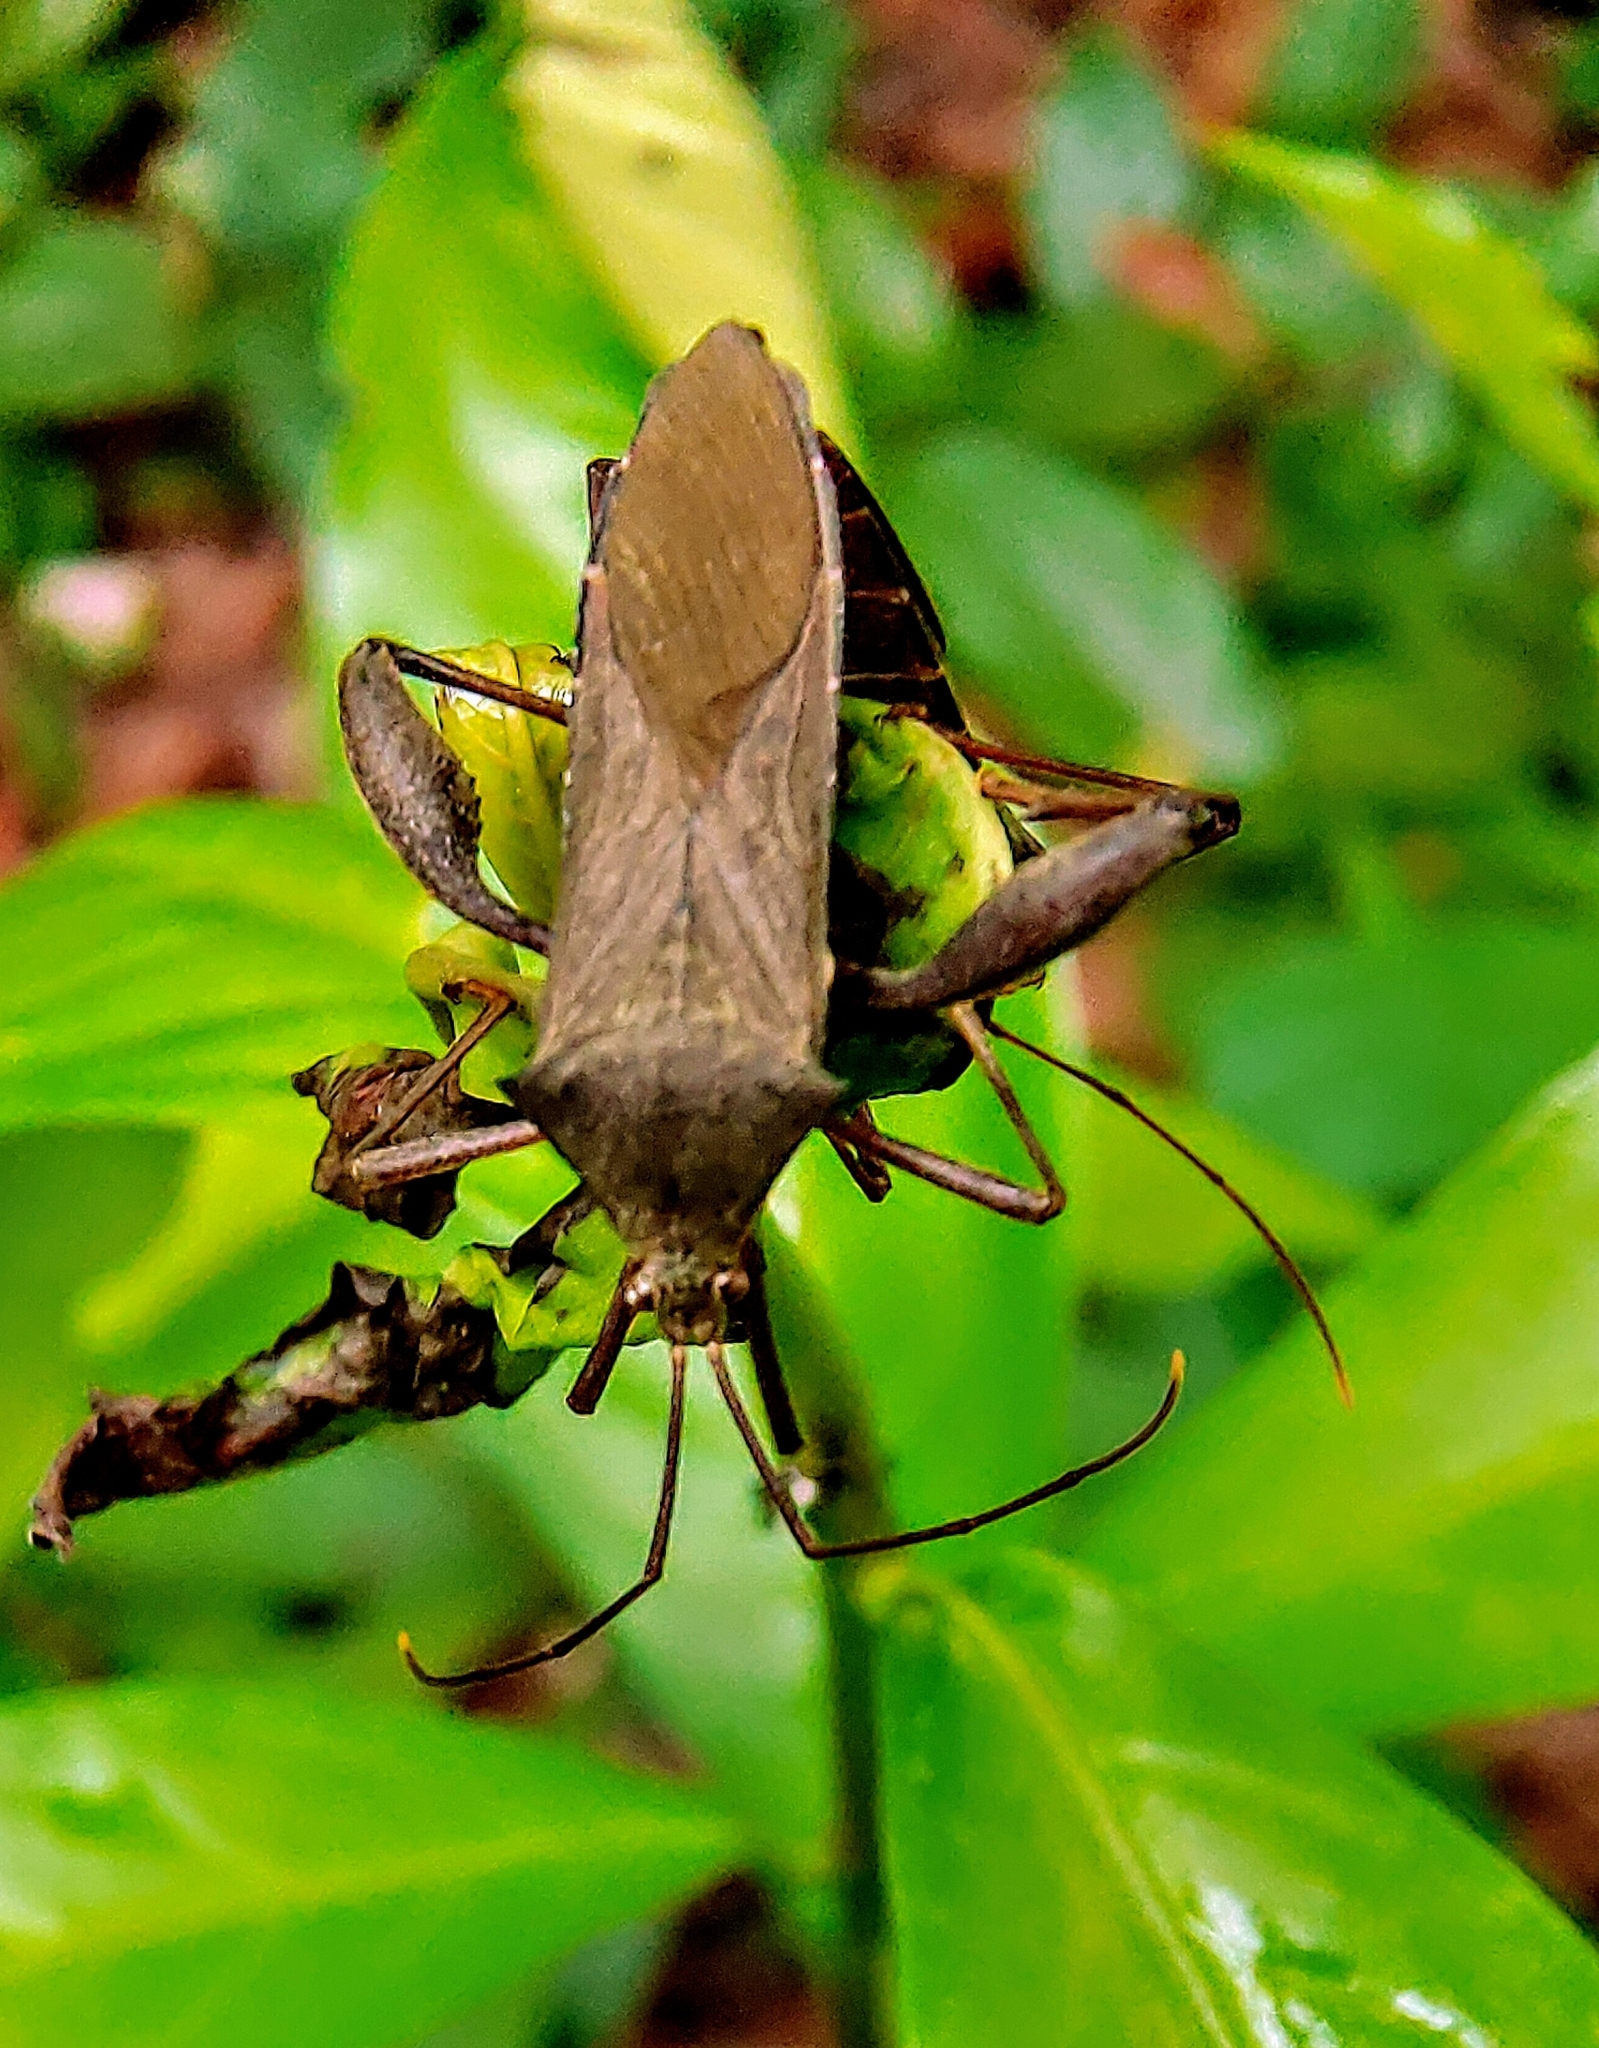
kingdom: Animalia
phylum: Arthropoda
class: Insecta
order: Hemiptera
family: Coreidae
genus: Mictis
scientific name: Mictis longicornis
